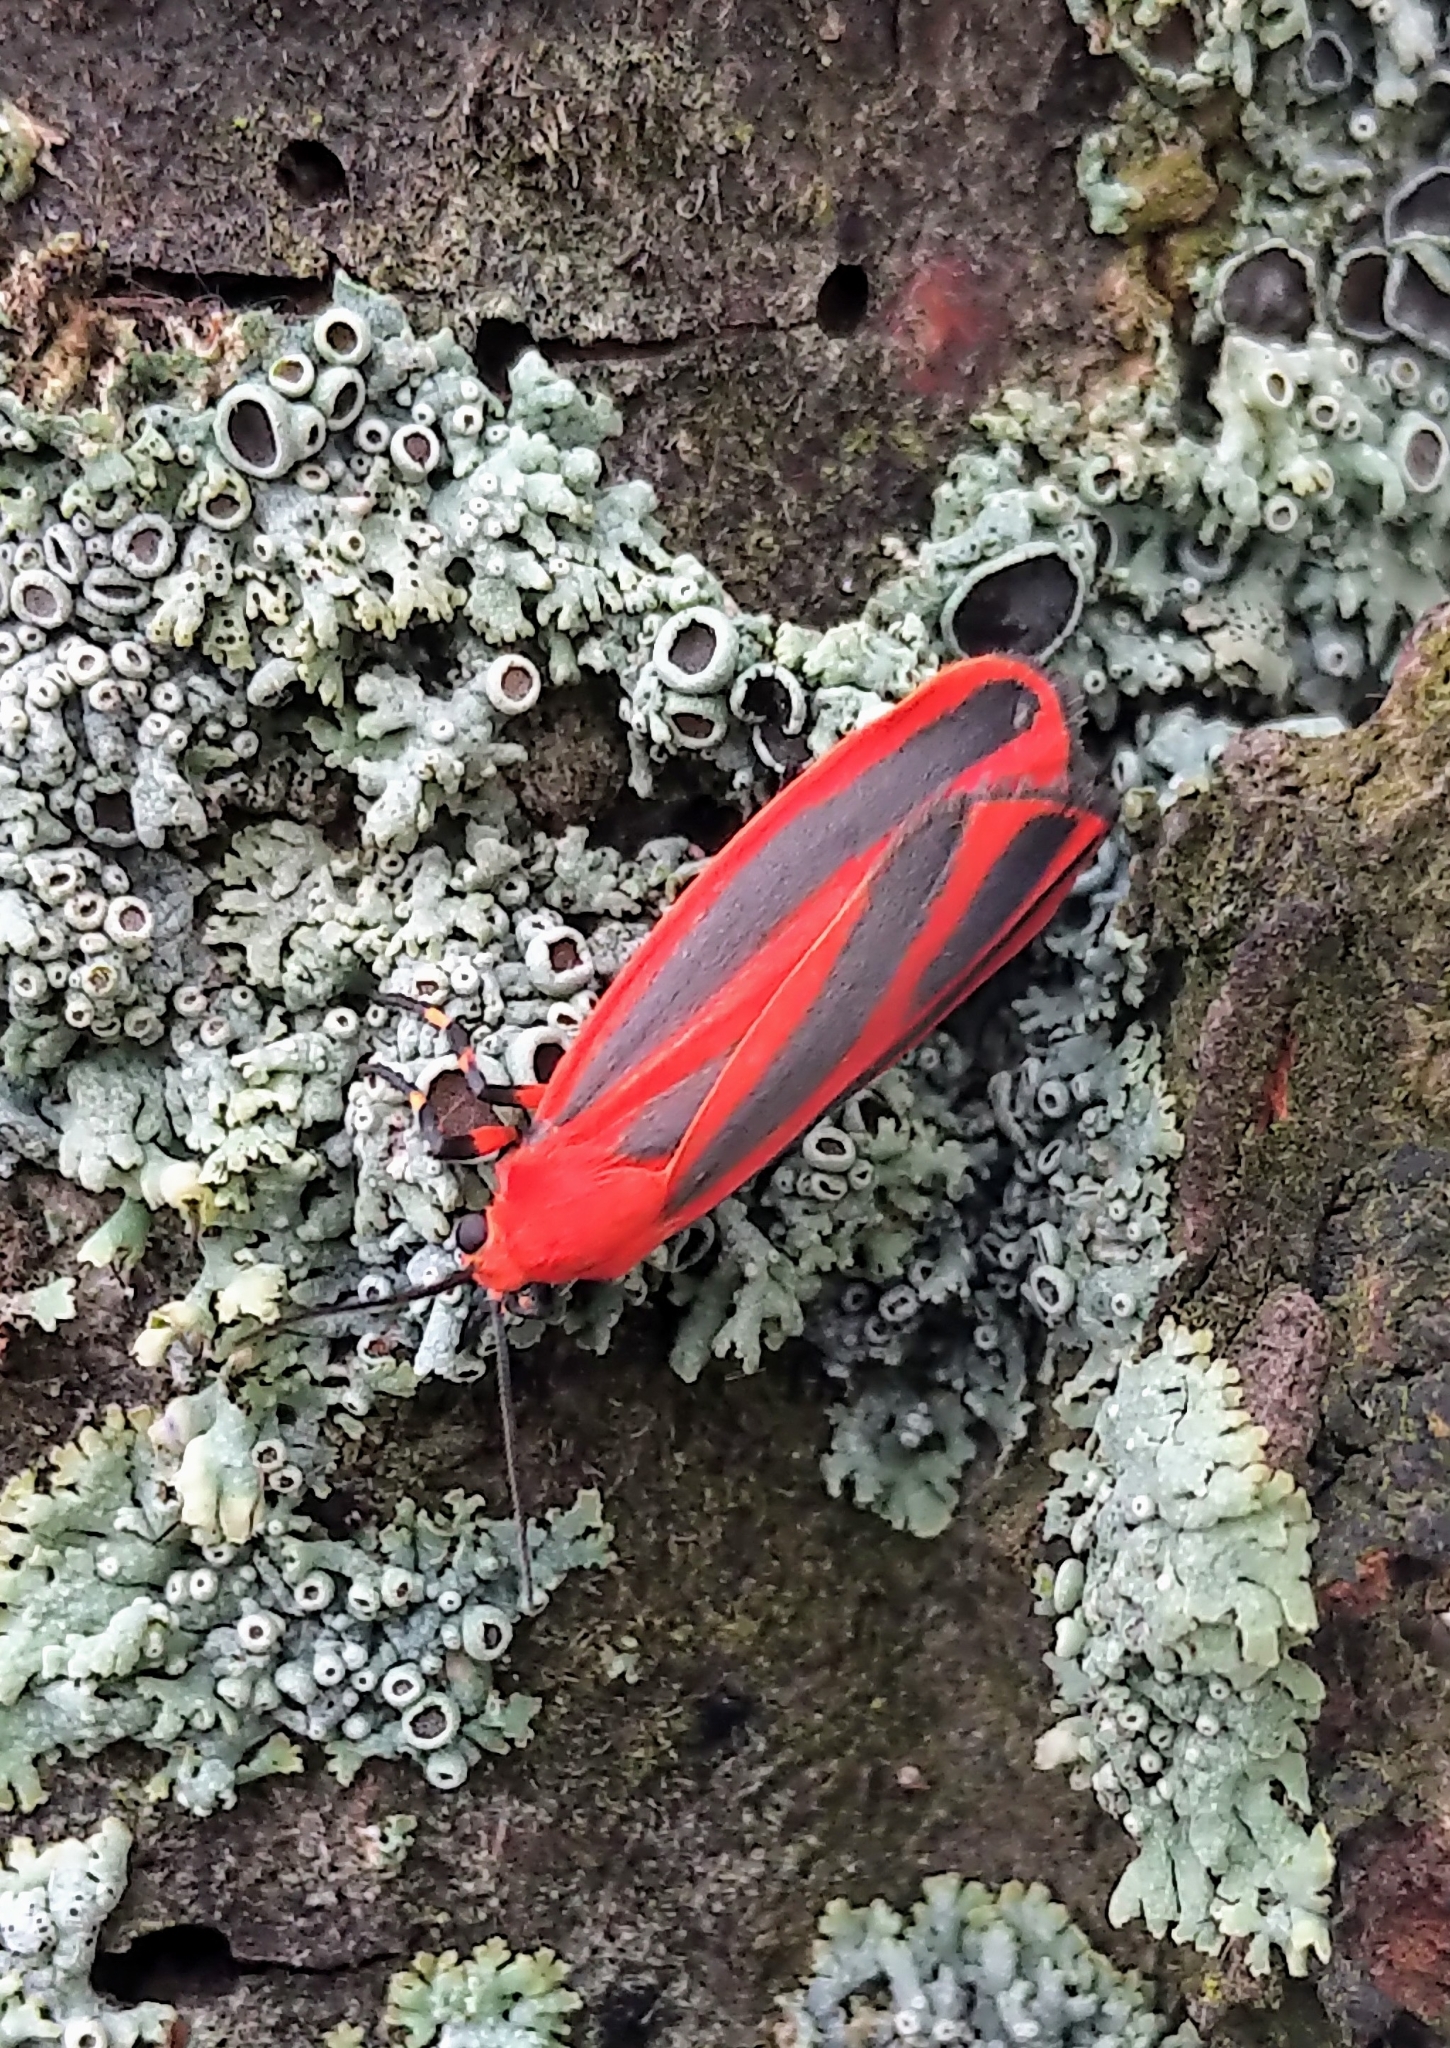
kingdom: Animalia
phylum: Arthropoda
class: Insecta
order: Lepidoptera
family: Erebidae
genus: Hypoprepia
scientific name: Hypoprepia miniata
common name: Scarlet-winged lichen moth
